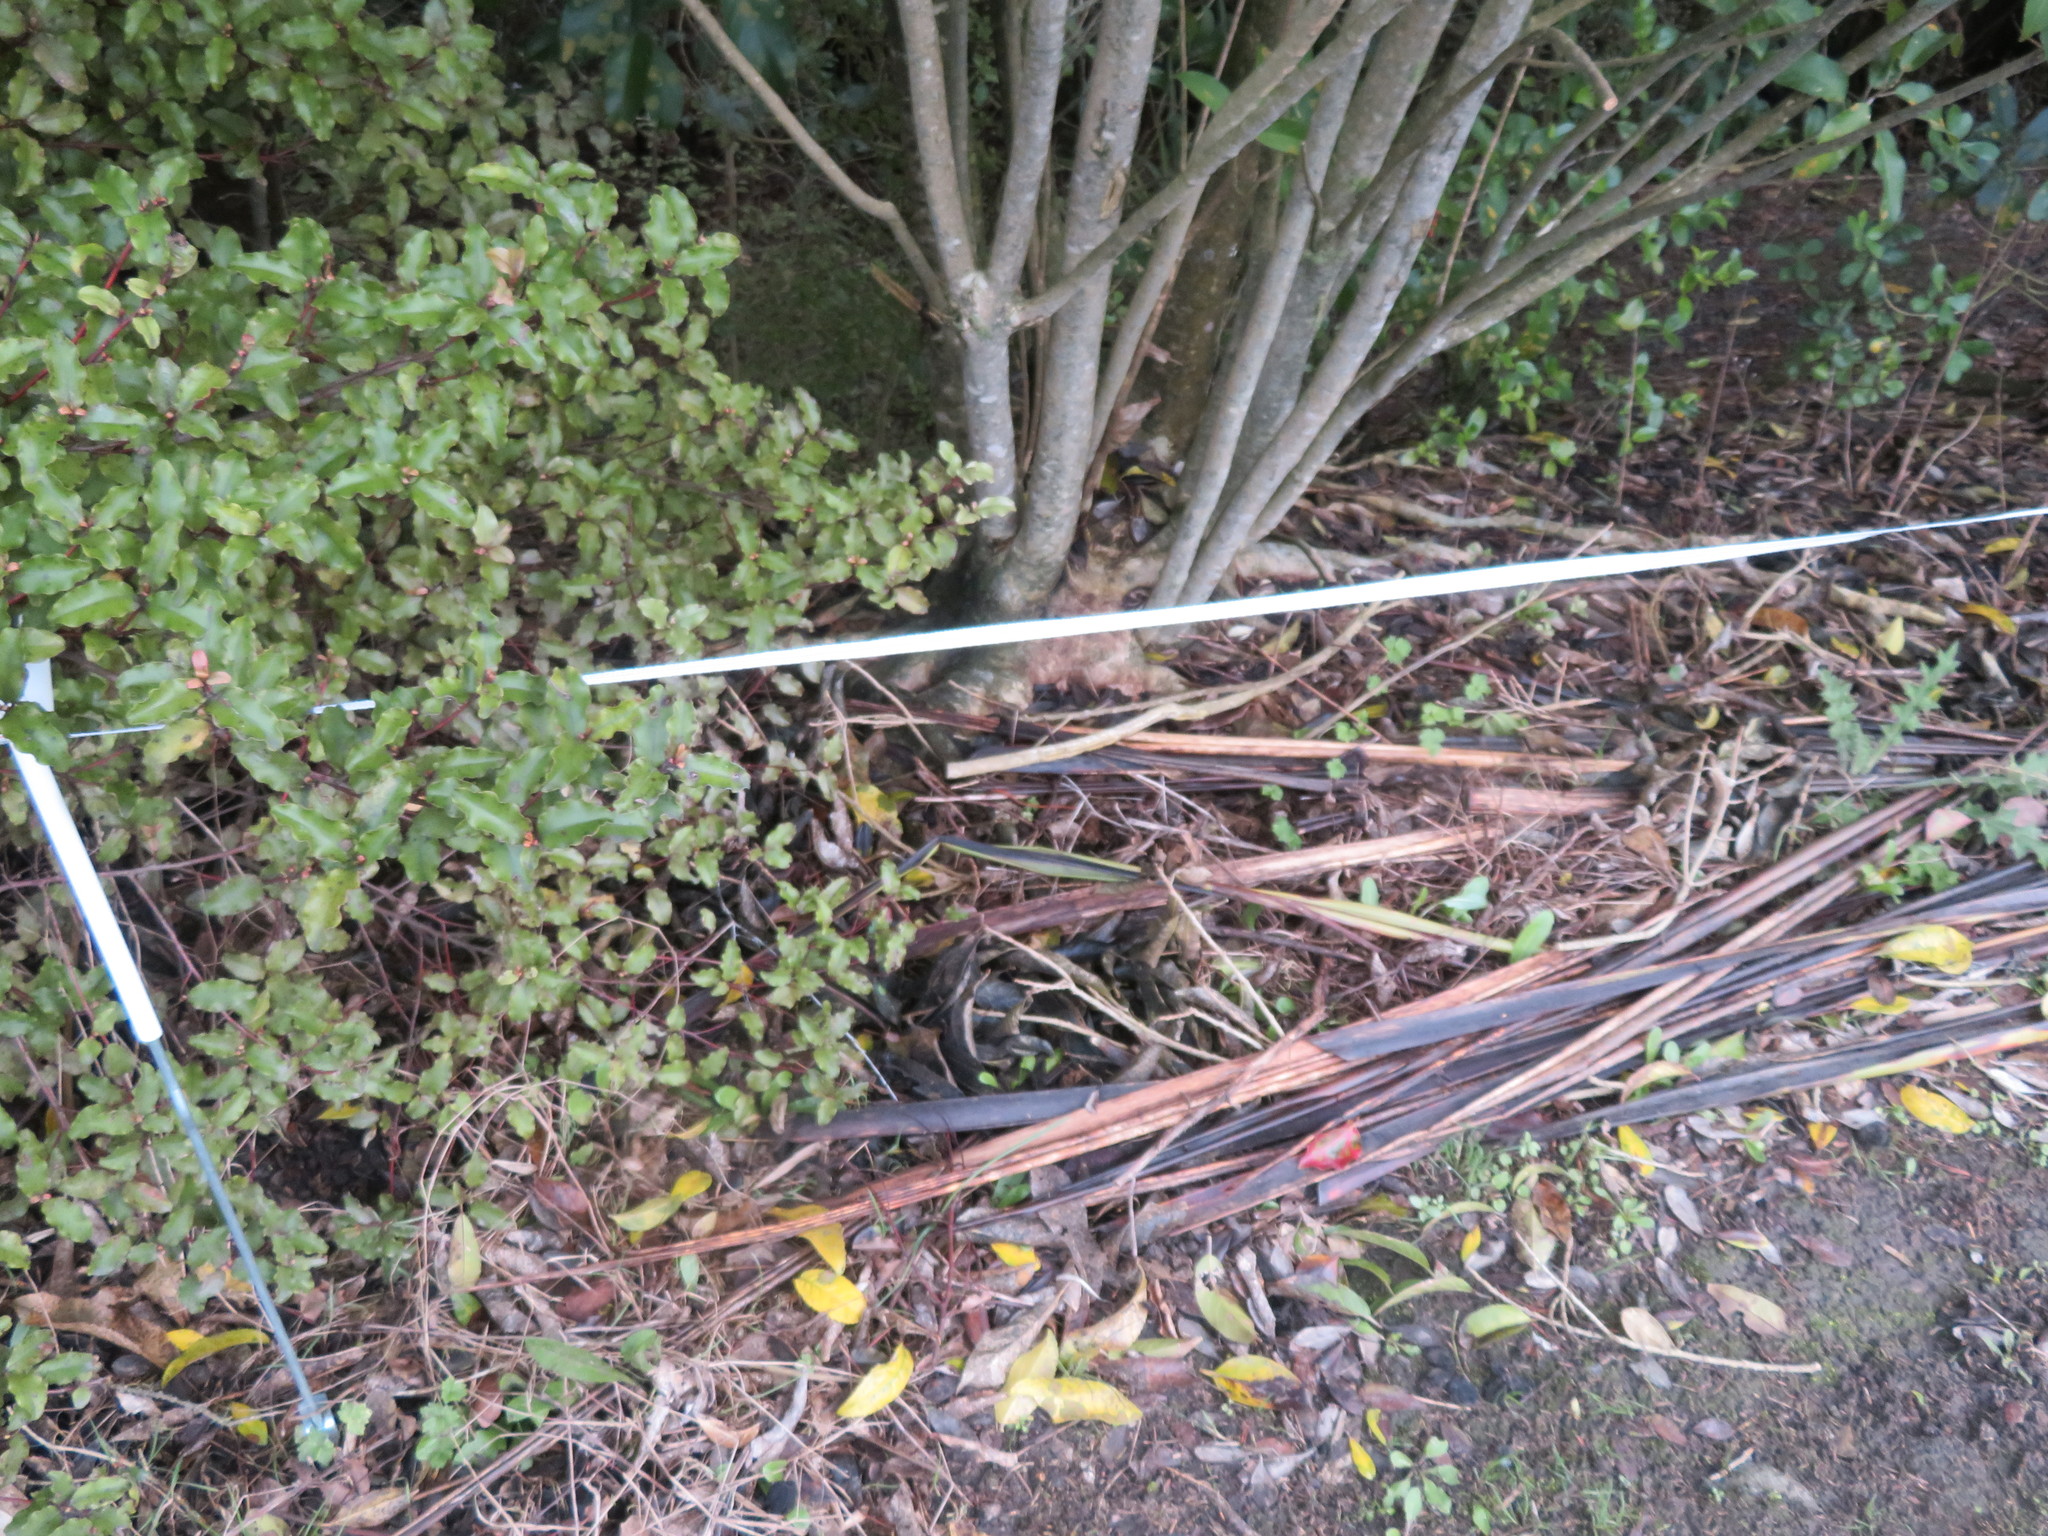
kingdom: Plantae
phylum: Tracheophyta
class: Magnoliopsida
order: Ericales
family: Primulaceae
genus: Myrsine
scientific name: Myrsine australis
